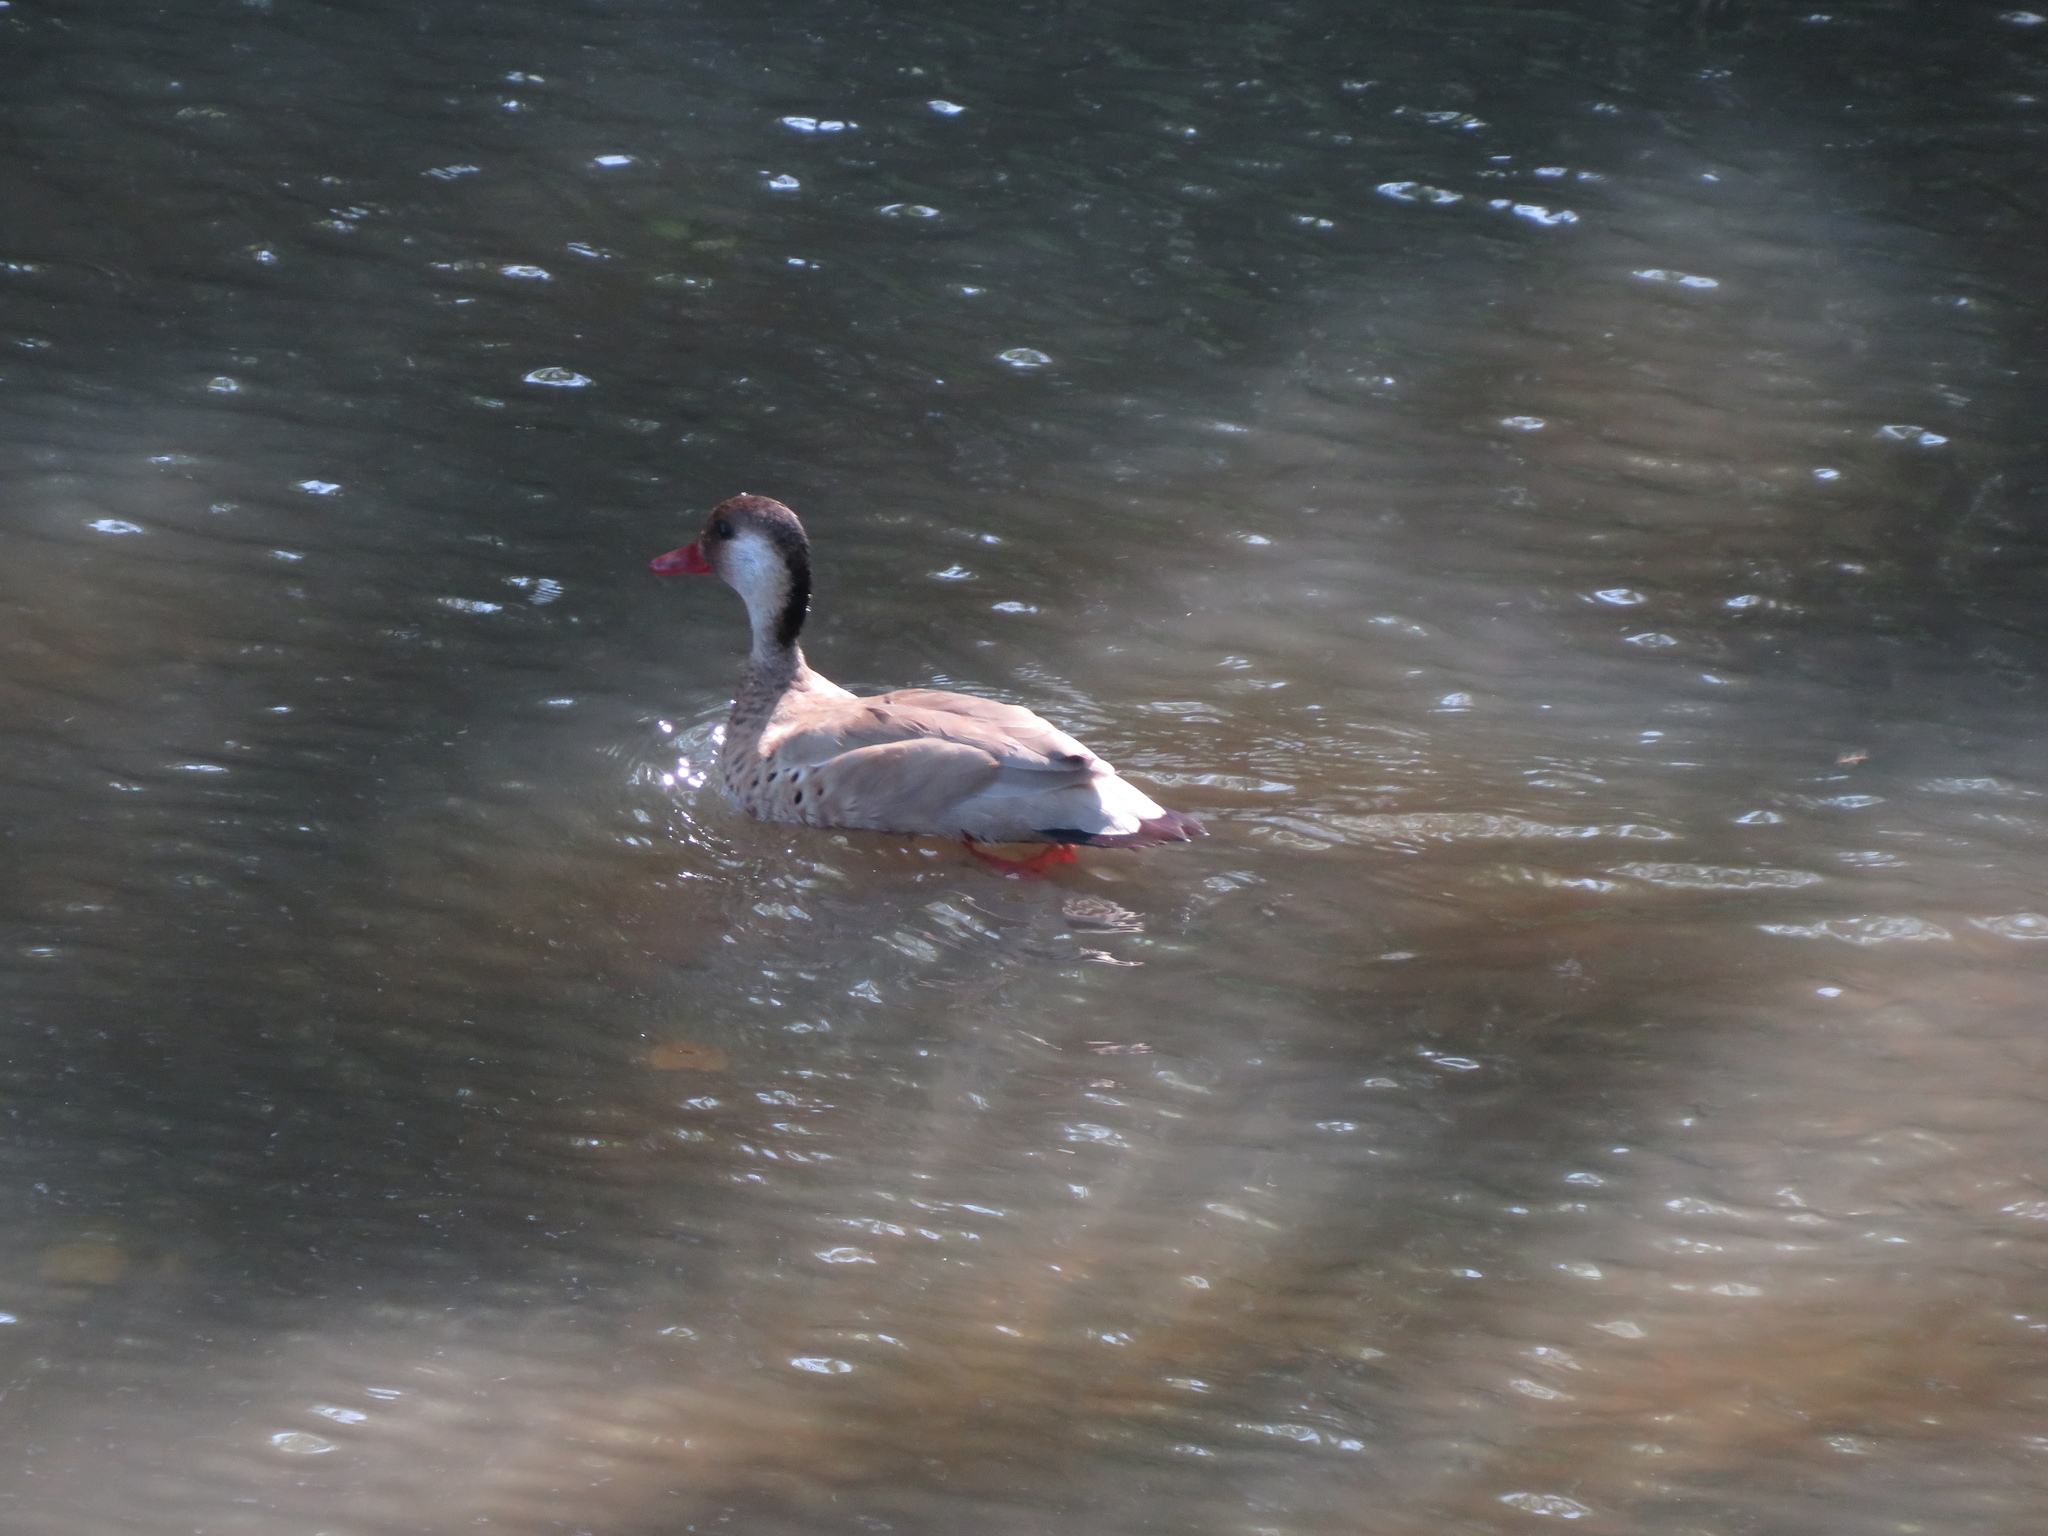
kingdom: Animalia
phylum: Chordata
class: Aves
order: Anseriformes
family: Anatidae
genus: Amazonetta
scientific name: Amazonetta brasiliensis
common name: Brazilian teal
